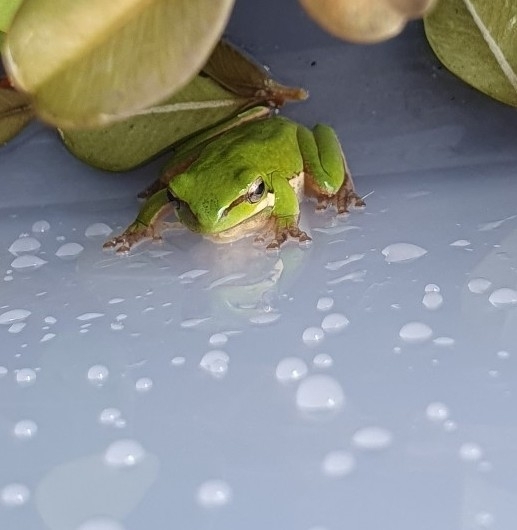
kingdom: Animalia
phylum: Chordata
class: Amphibia
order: Anura
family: Pelodryadidae
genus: Litoria
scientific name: Litoria fallax
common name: Eastern dwarf treefrog
